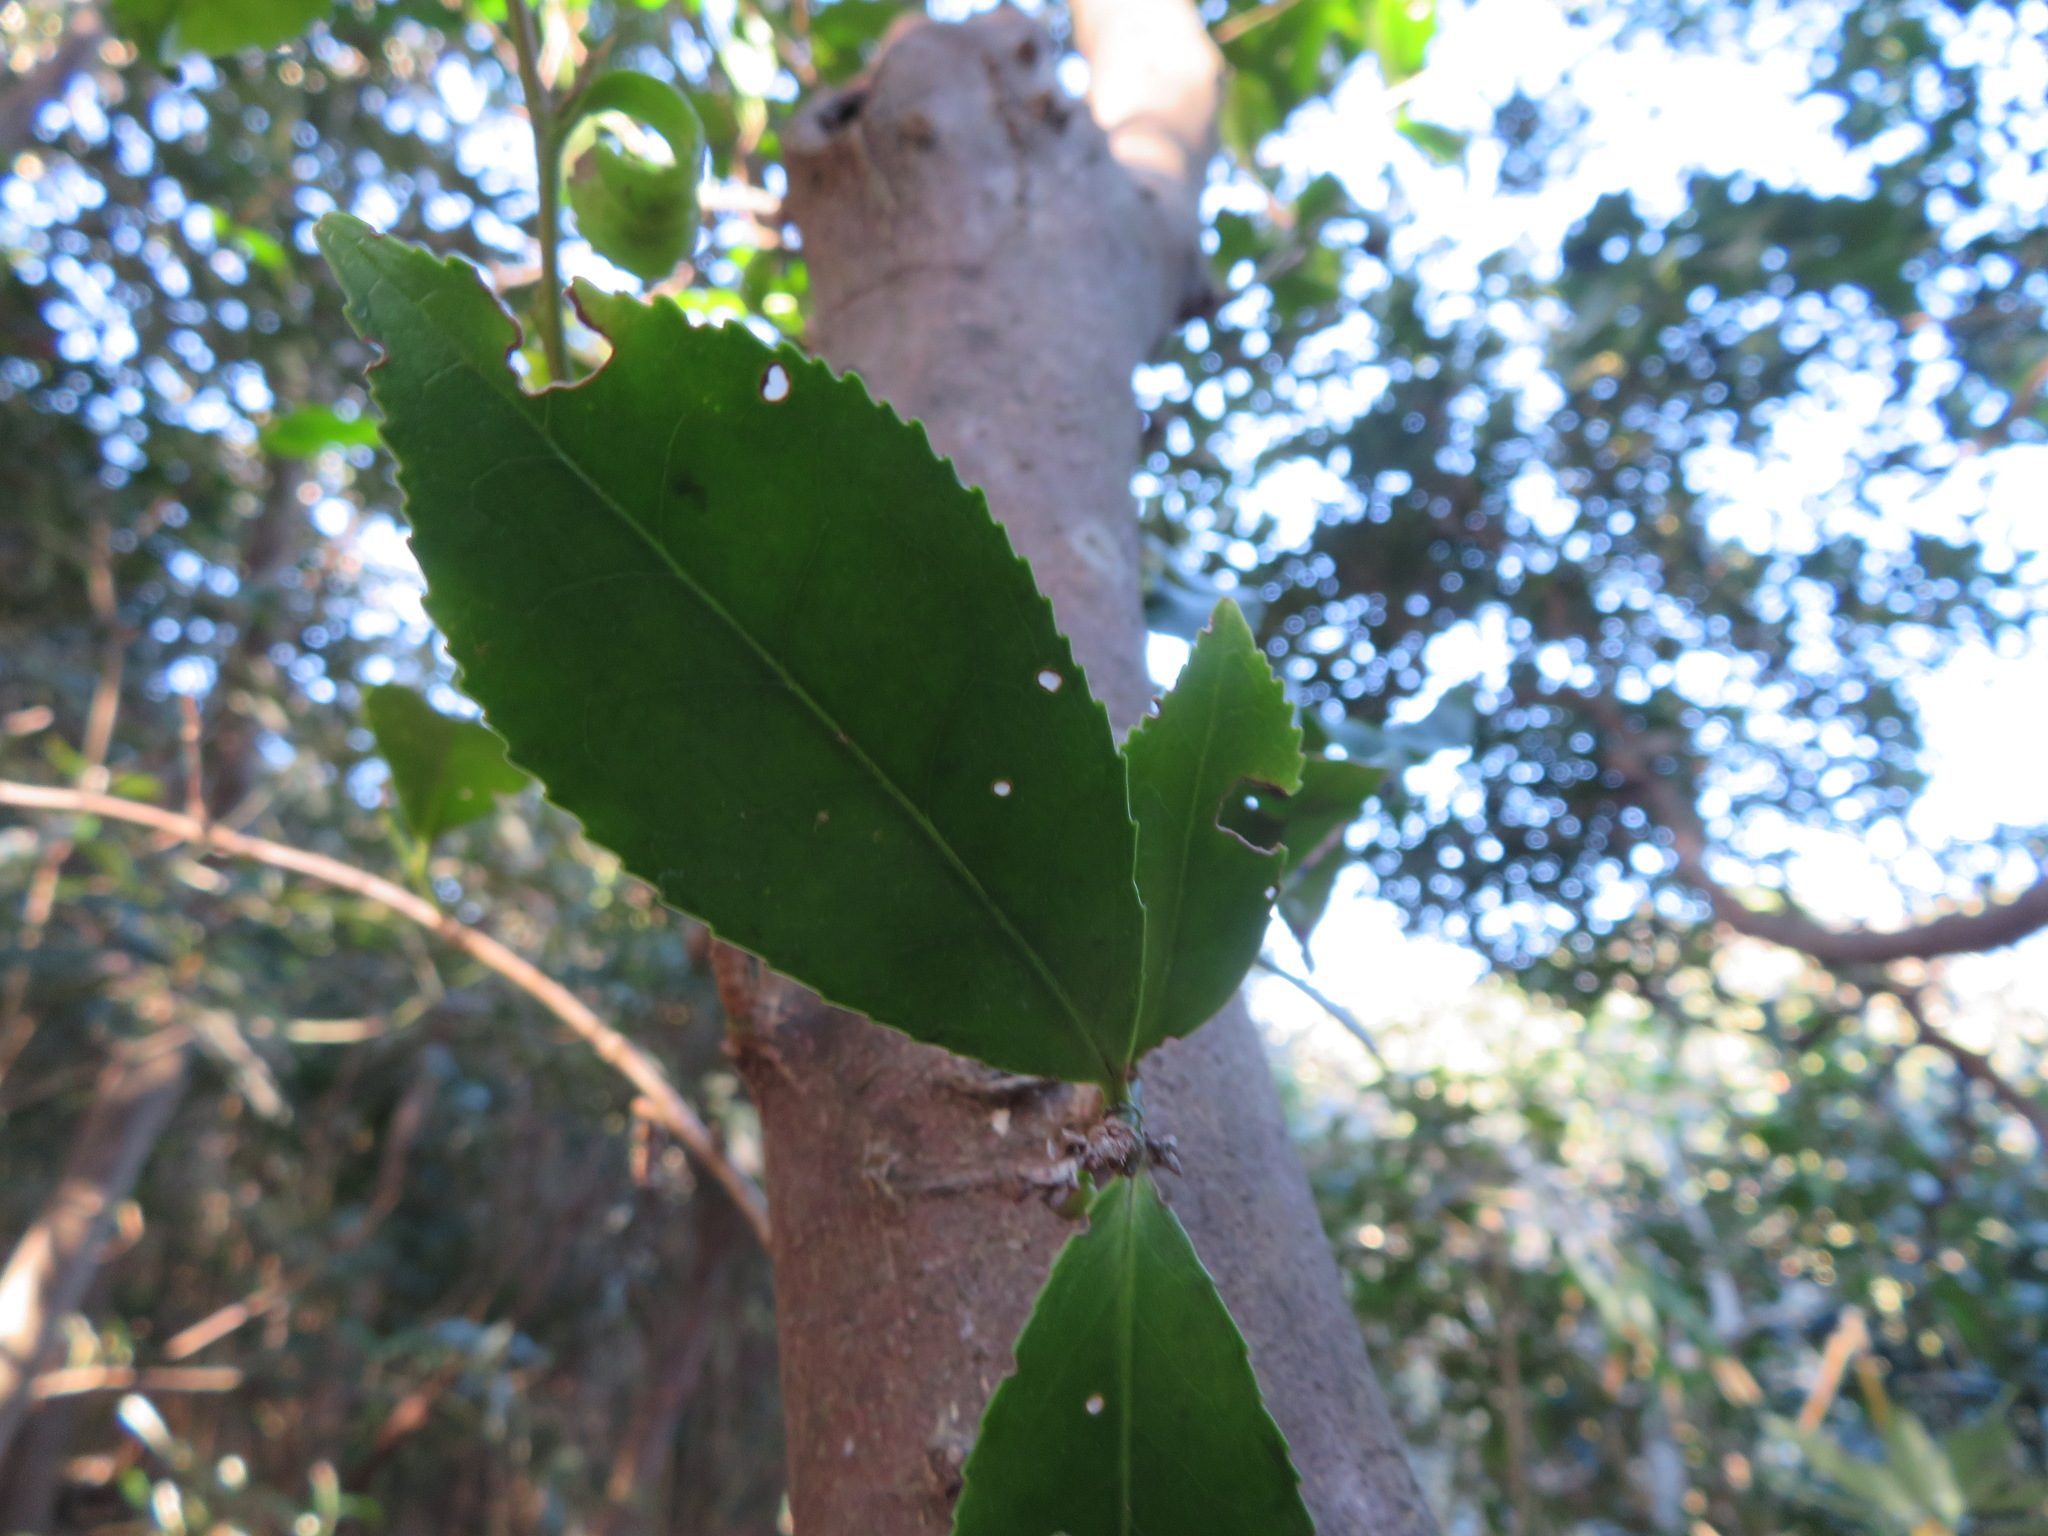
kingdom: Plantae
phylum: Tracheophyta
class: Magnoliopsida
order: Ericales
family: Pentaphylacaceae
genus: Eurya
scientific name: Eurya japonica
